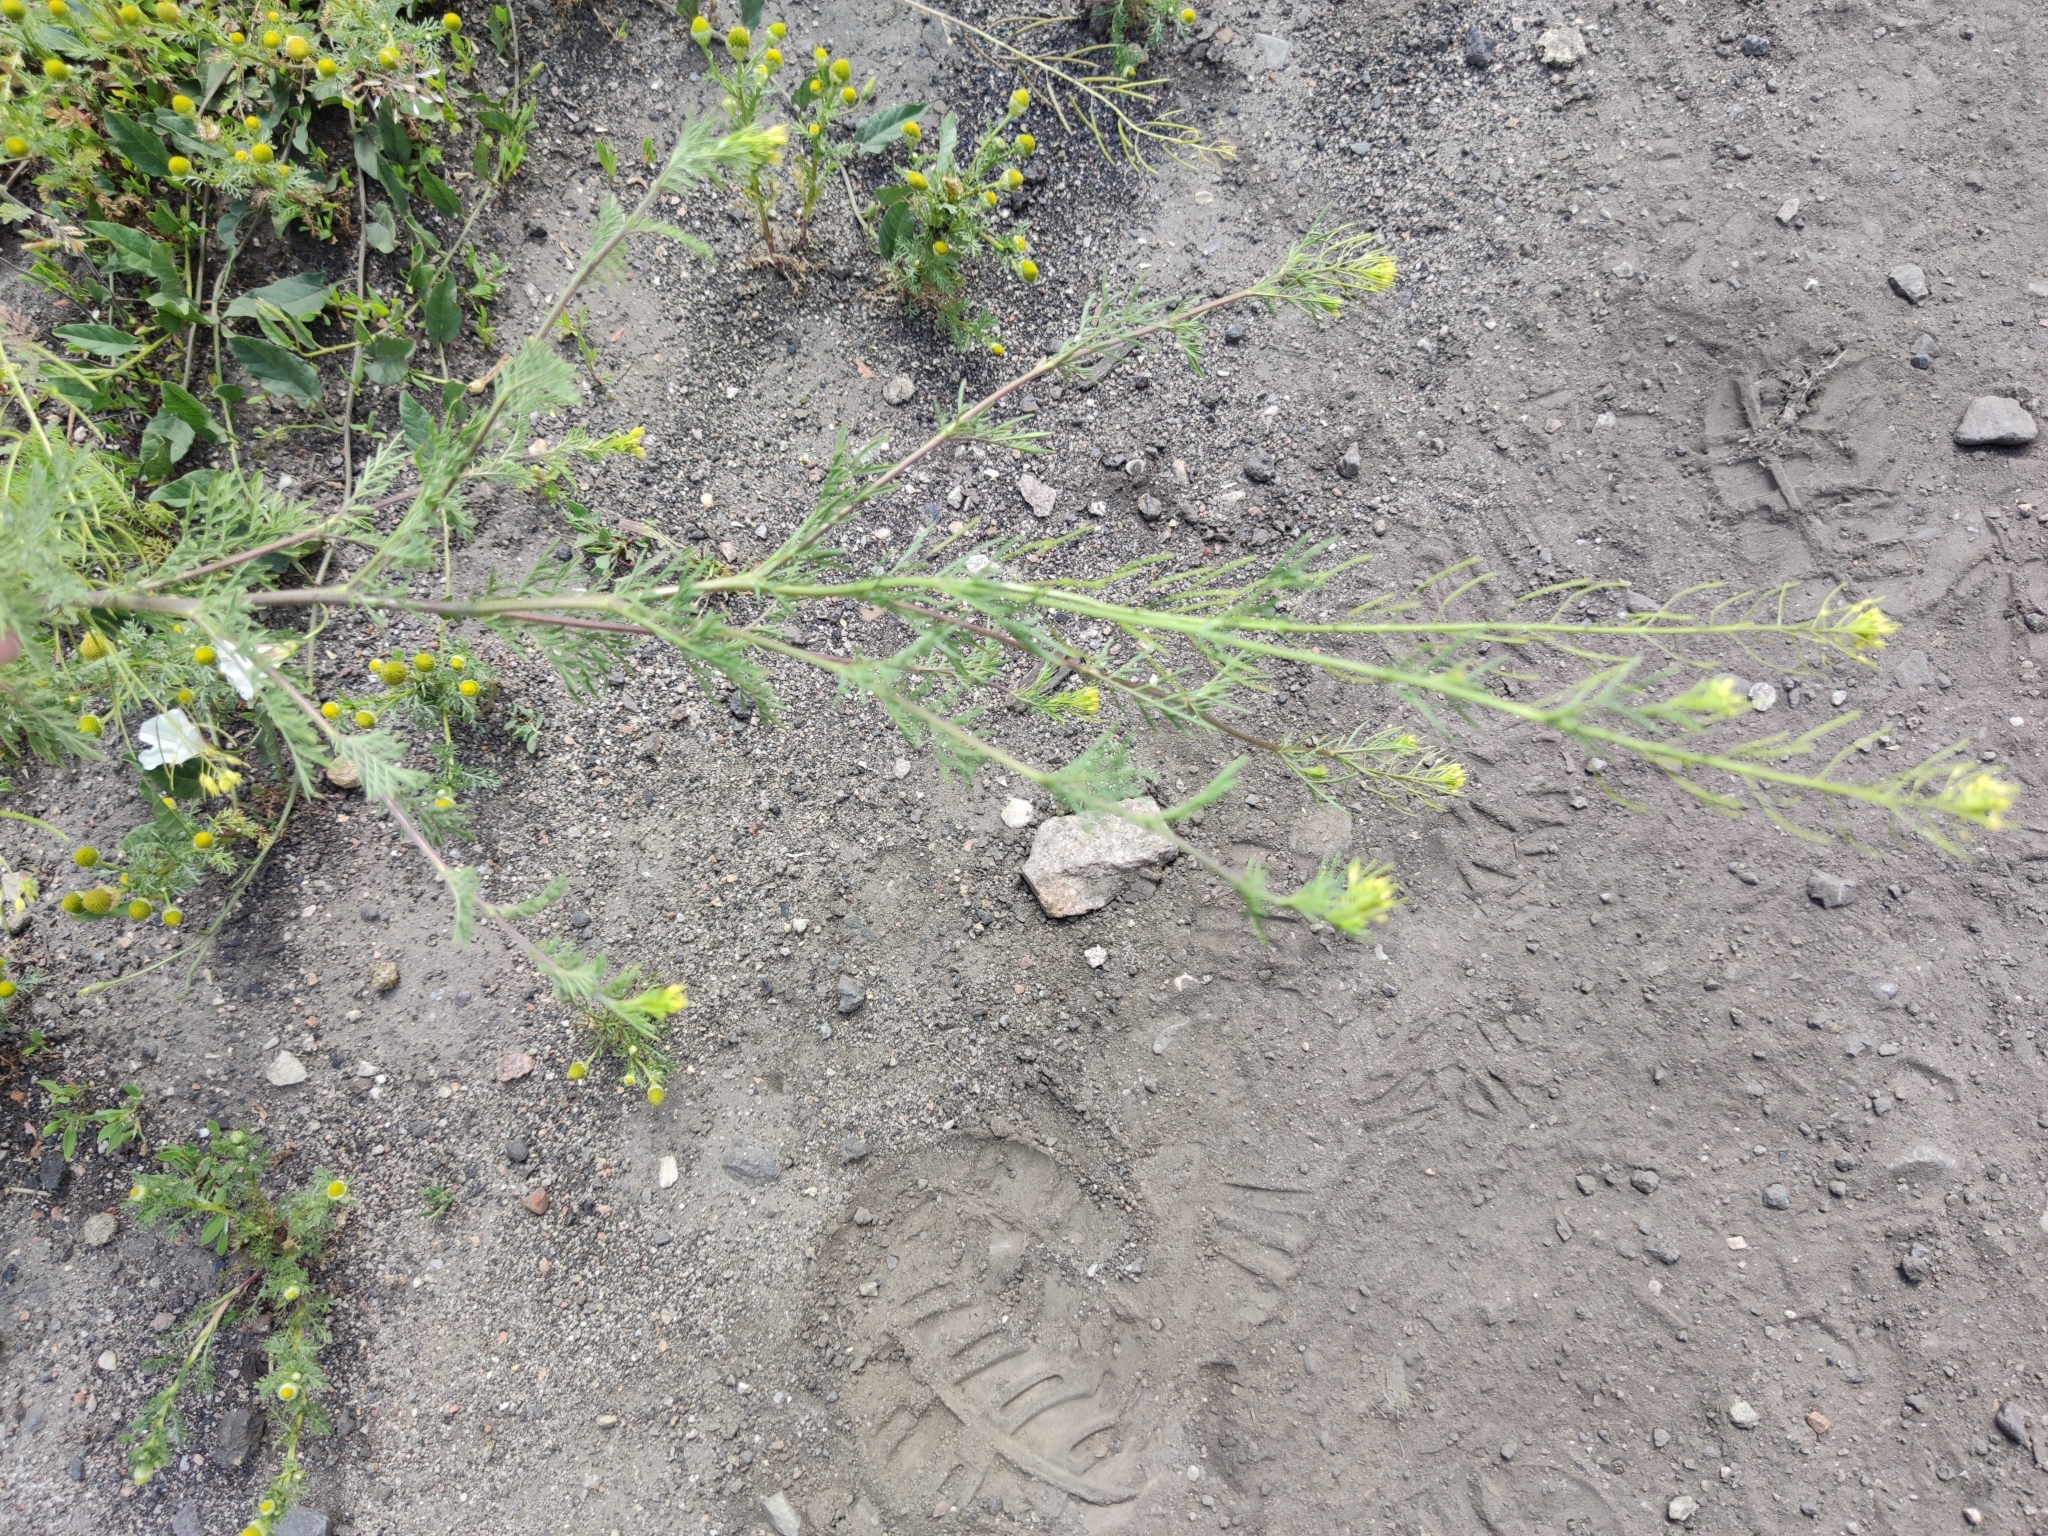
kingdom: Plantae
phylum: Tracheophyta
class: Magnoliopsida
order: Brassicales
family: Brassicaceae
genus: Descurainia
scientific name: Descurainia sophia
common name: Flixweed
